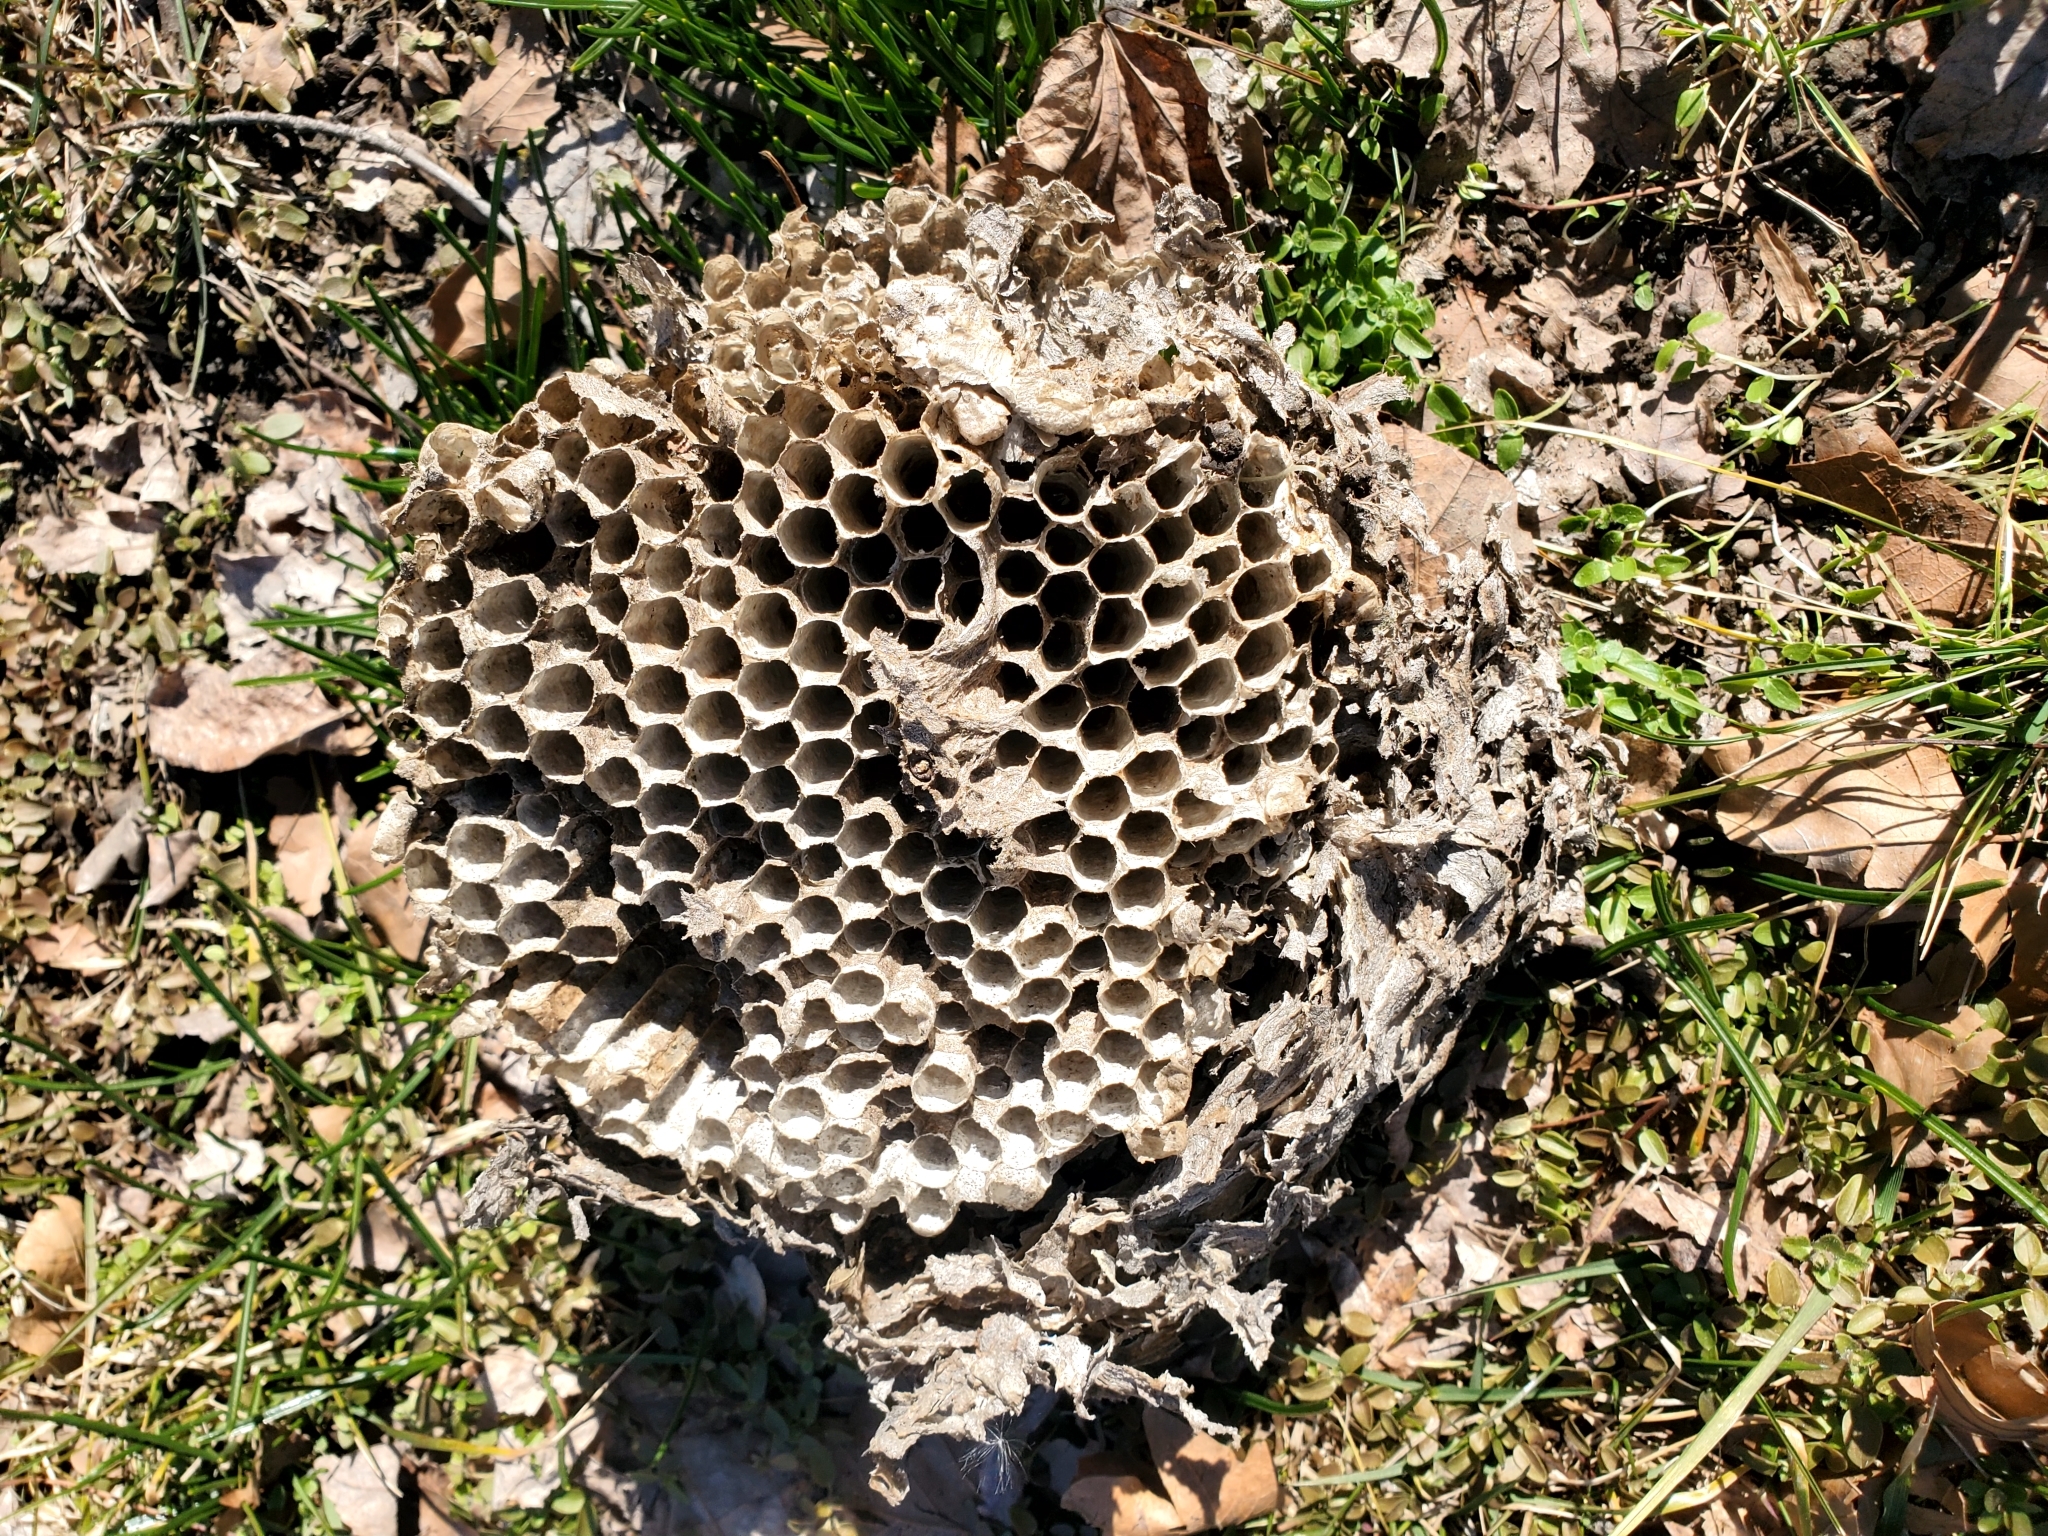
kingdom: Animalia
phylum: Arthropoda
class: Insecta
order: Hymenoptera
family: Vespidae
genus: Dolichovespula
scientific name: Dolichovespula maculata
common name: Bald-faced hornet
